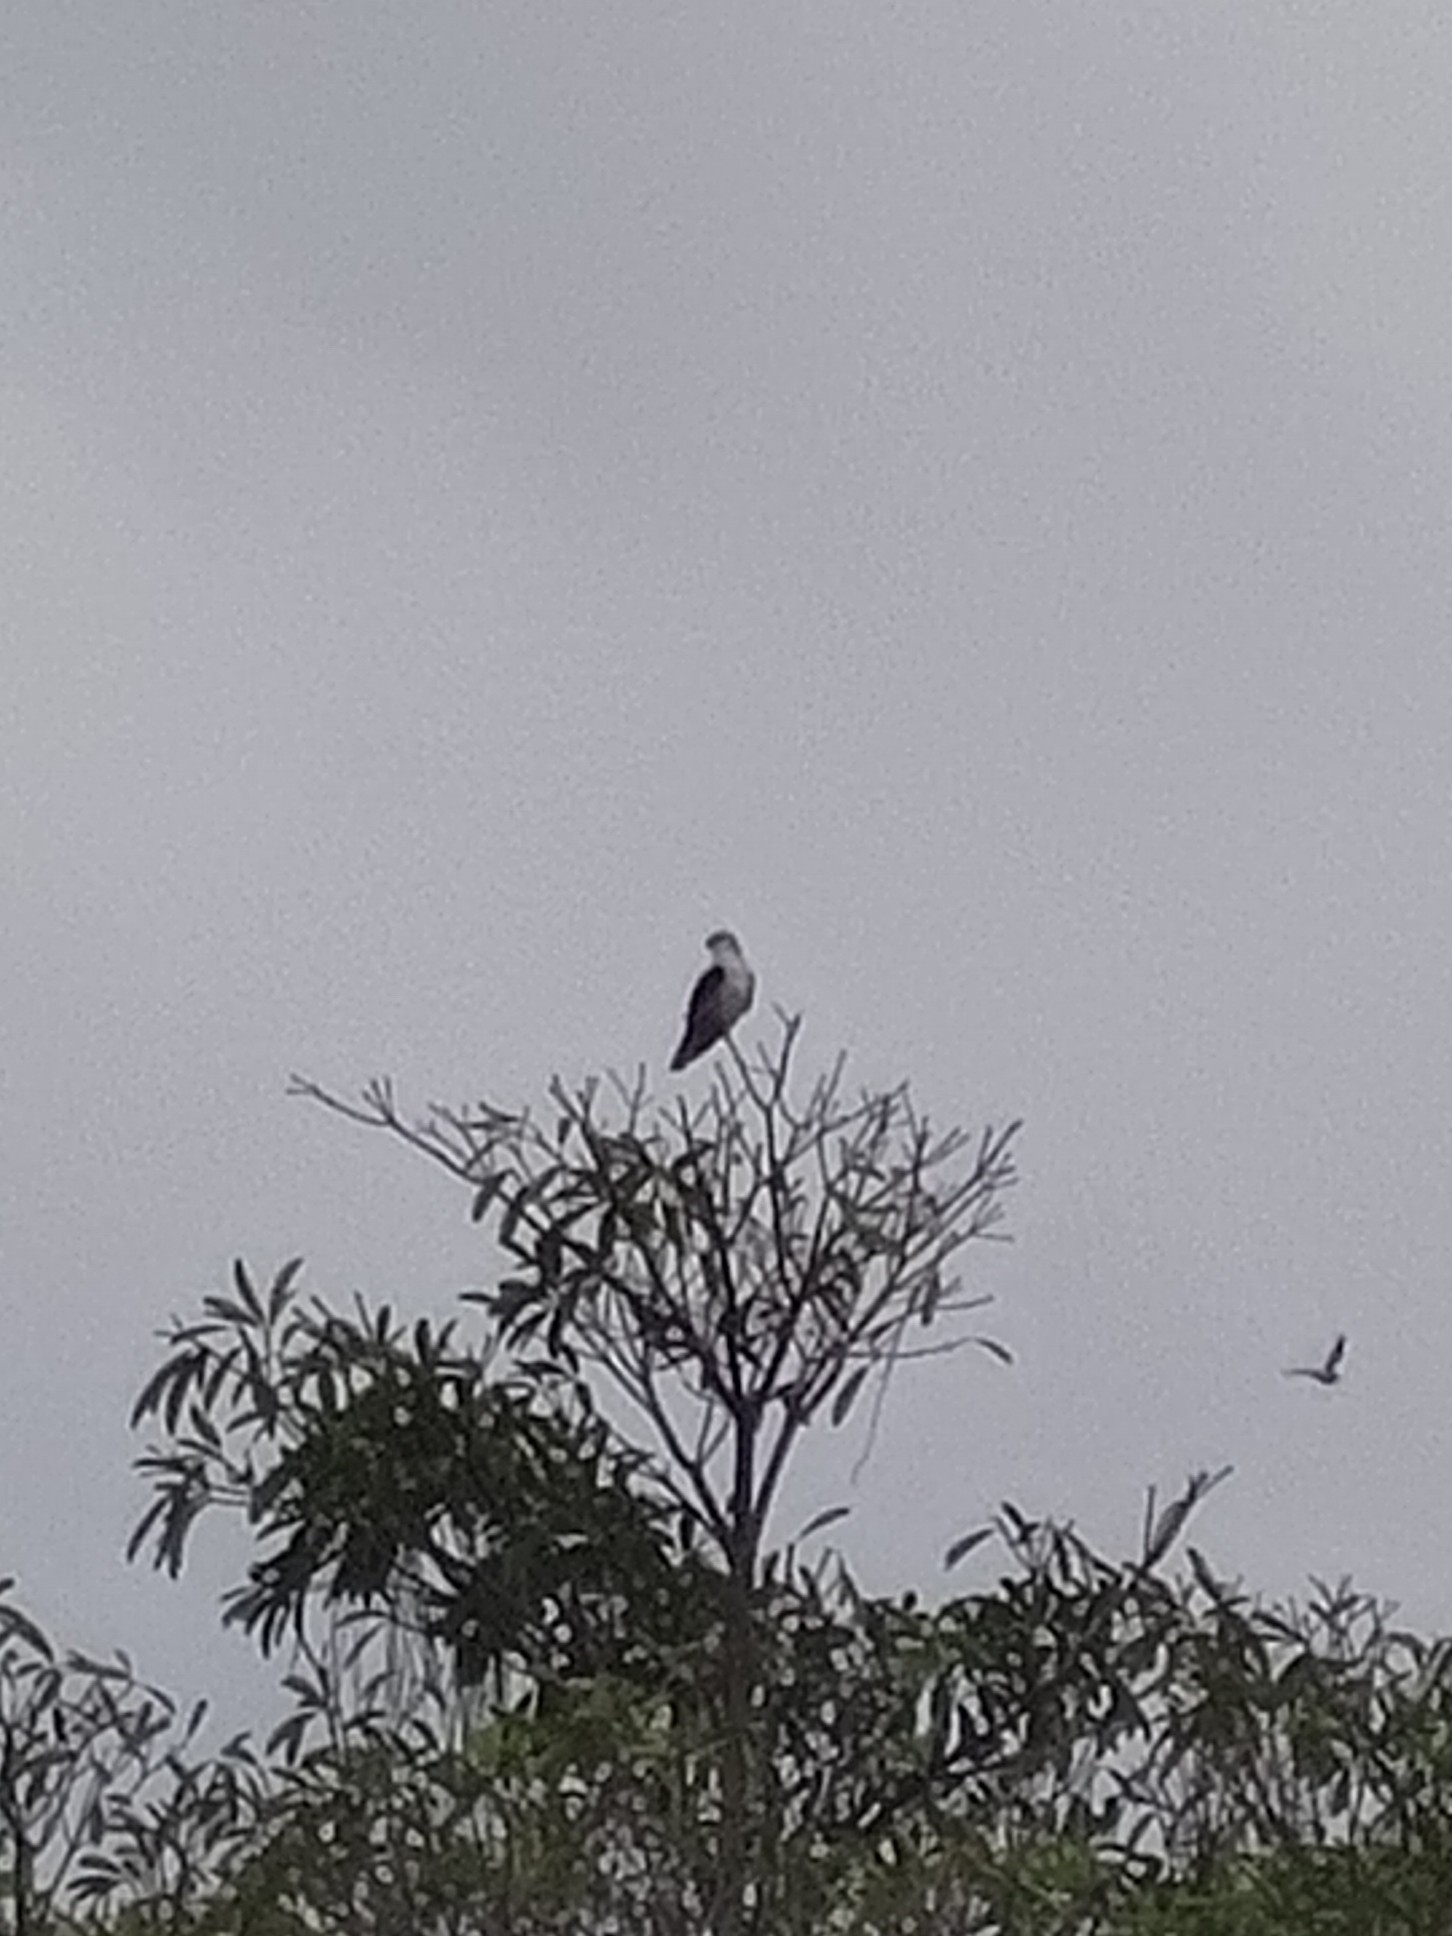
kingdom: Animalia
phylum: Chordata
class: Aves
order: Accipitriformes
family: Accipitridae
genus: Elanus
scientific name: Elanus caeruleus
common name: Black-winged kite
